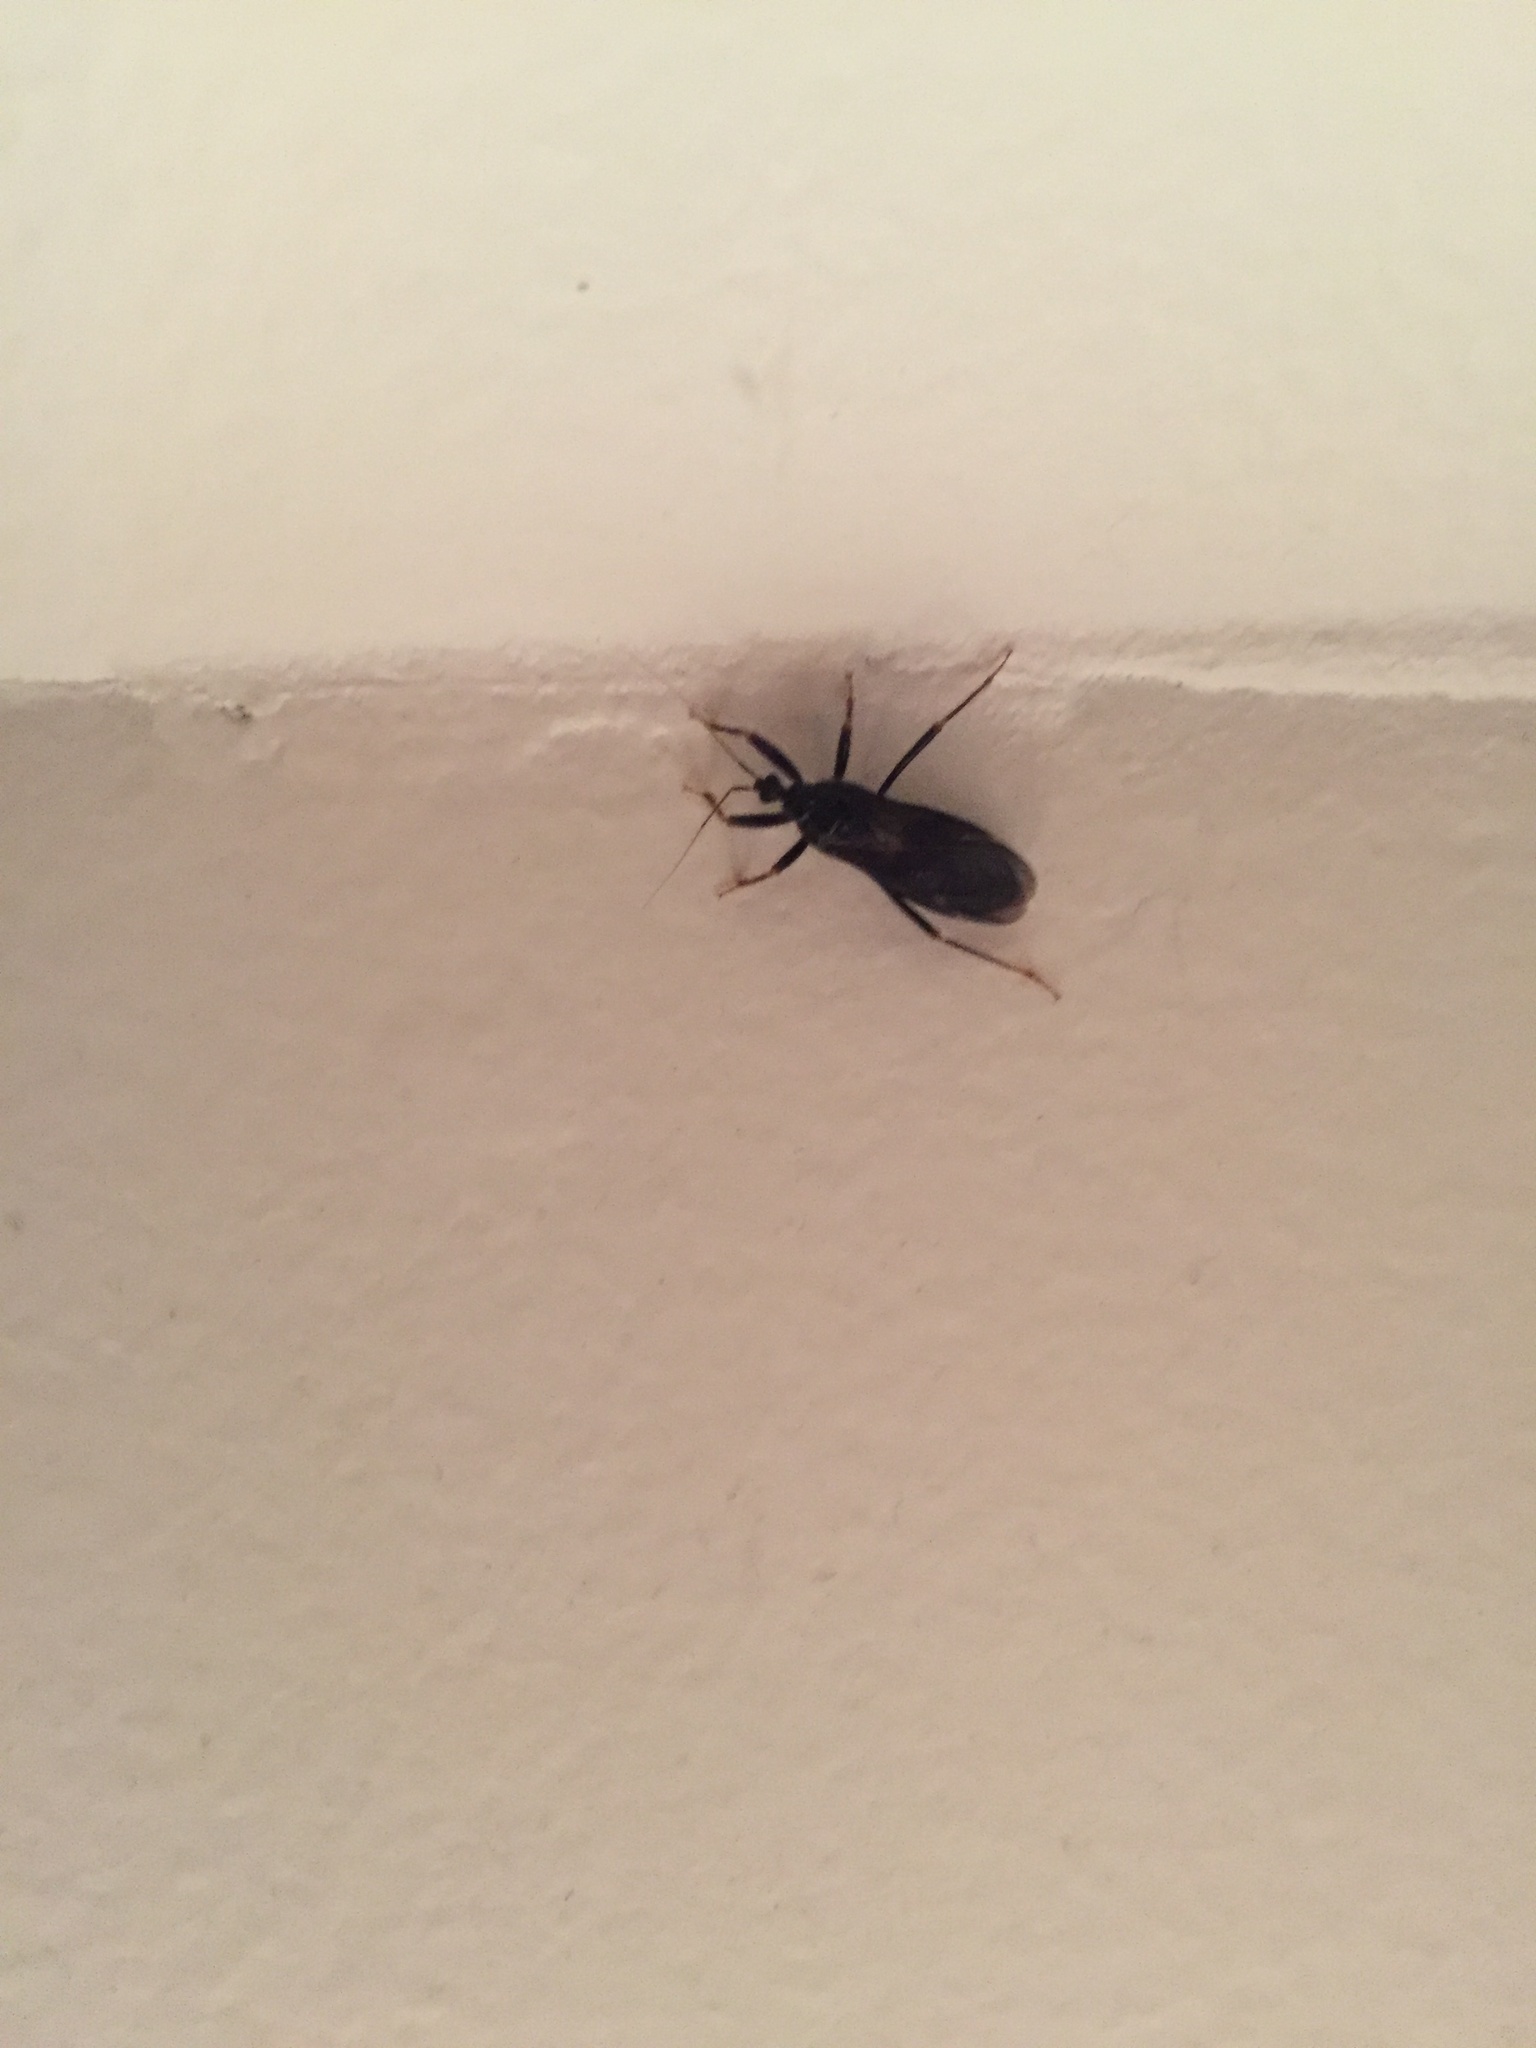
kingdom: Animalia
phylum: Arthropoda
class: Insecta
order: Hemiptera
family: Reduviidae
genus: Reduvius
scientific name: Reduvius personatus
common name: Masked hunter
